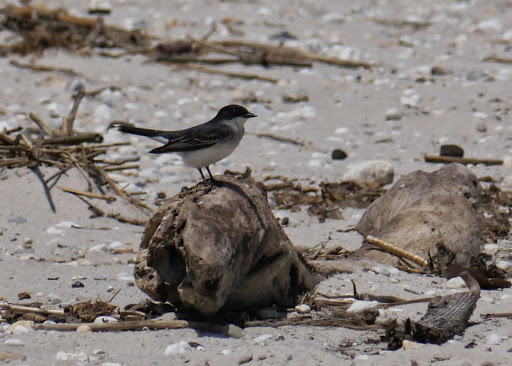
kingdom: Animalia
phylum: Chordata
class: Aves
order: Passeriformes
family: Tyrannidae
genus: Tyrannus
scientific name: Tyrannus tyrannus
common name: Eastern kingbird
